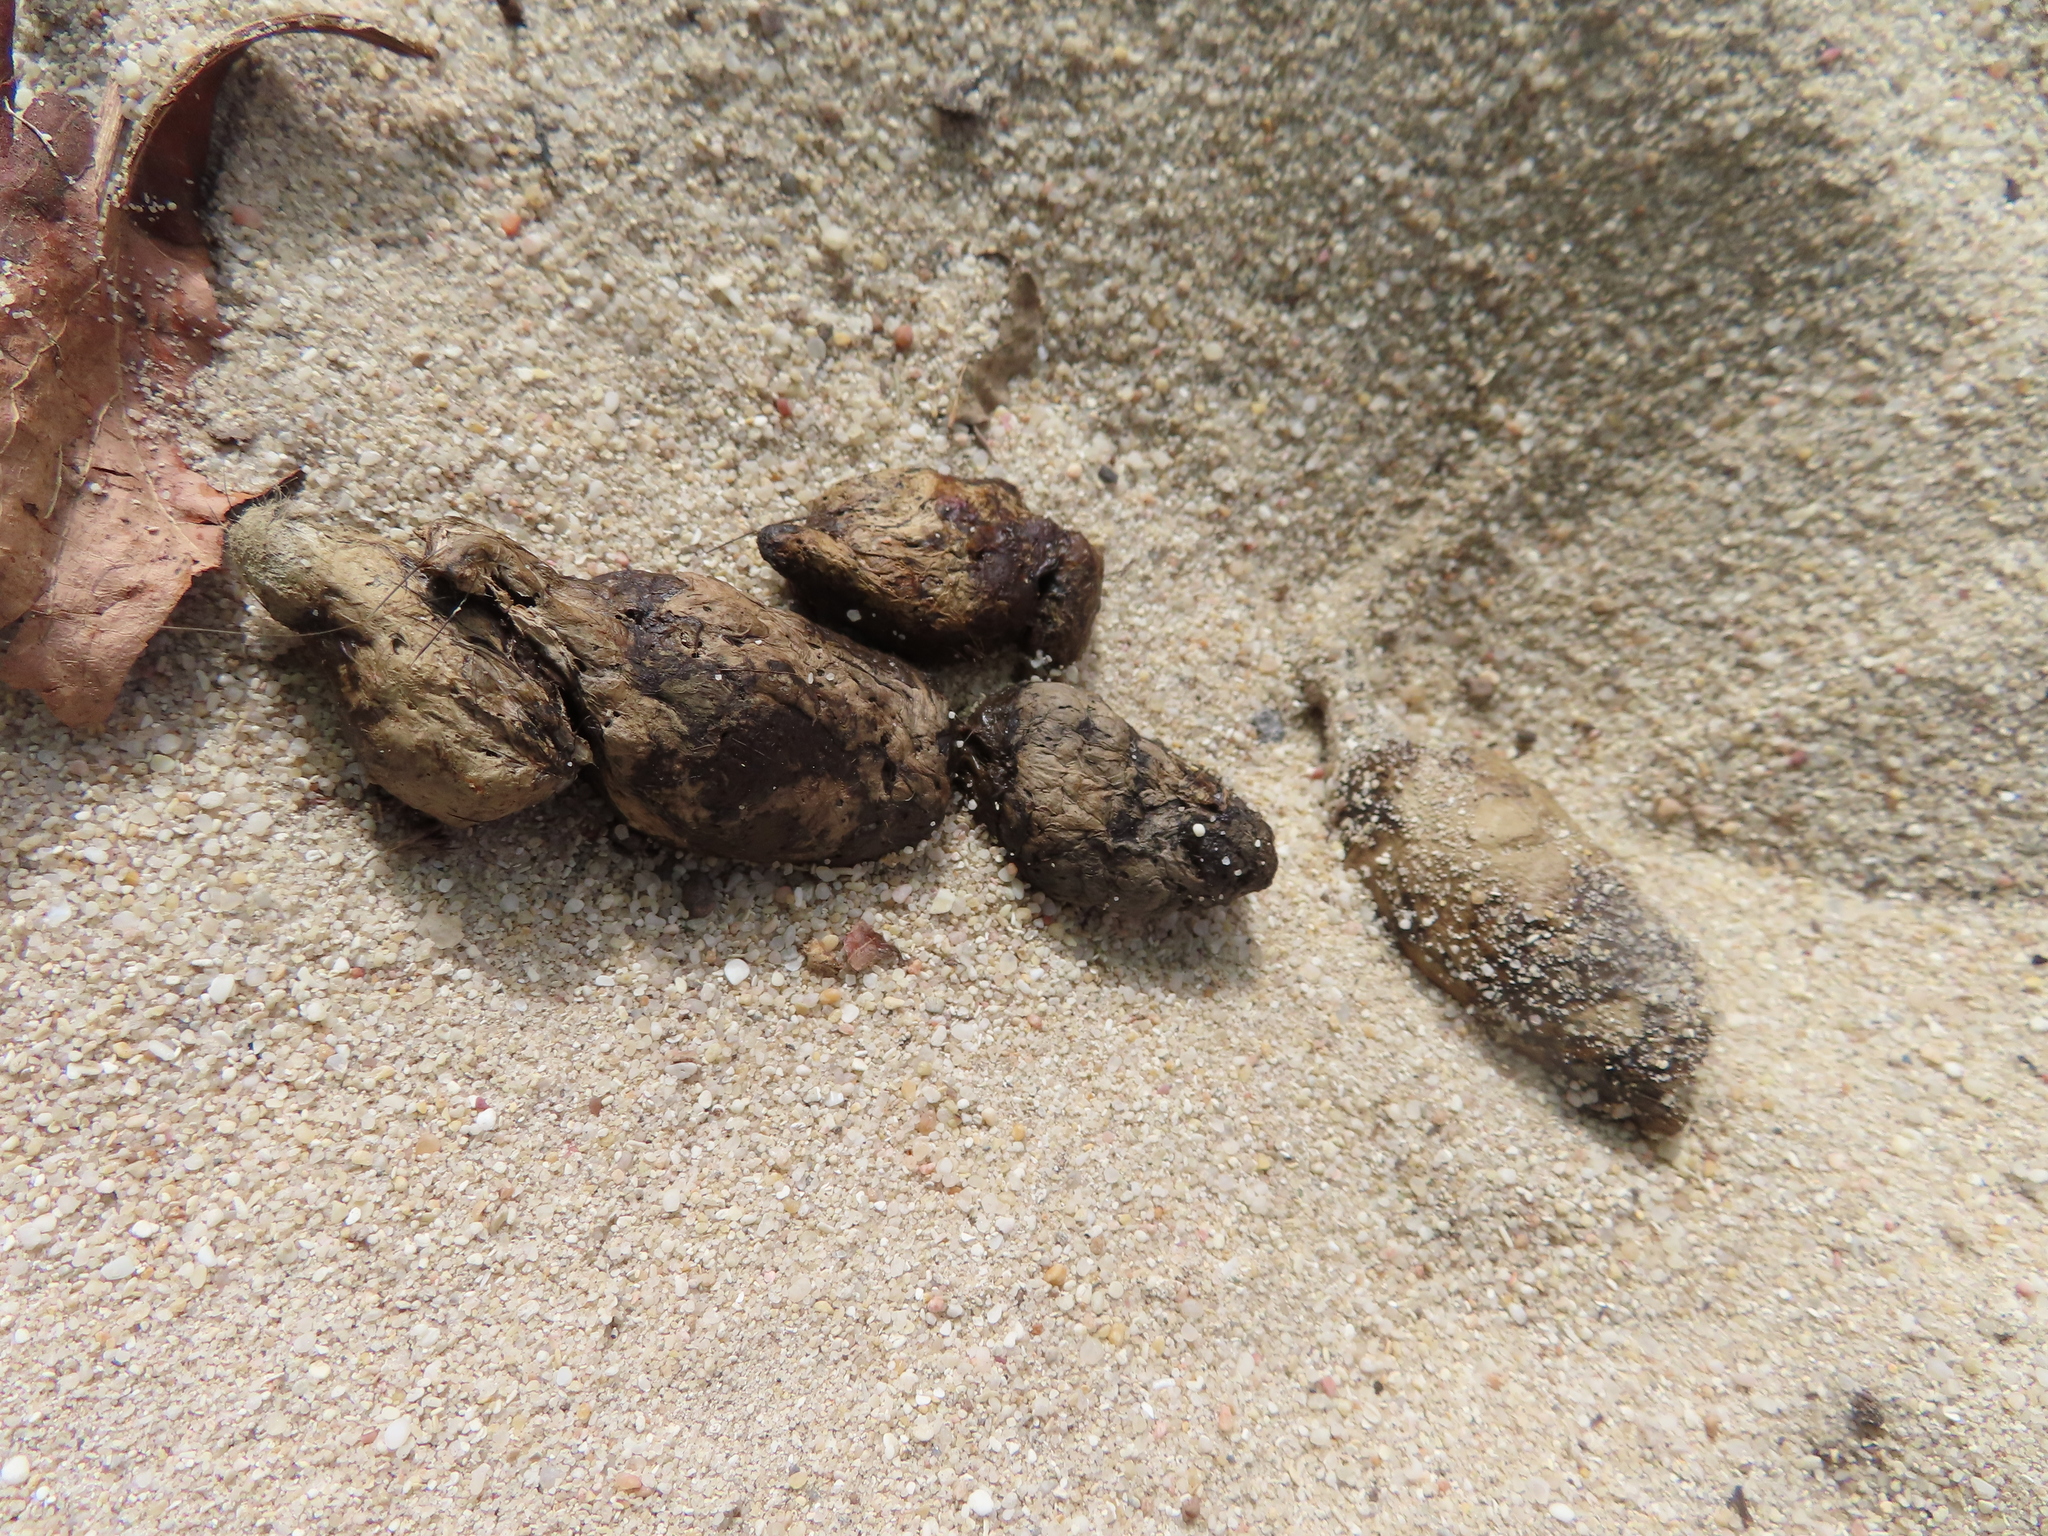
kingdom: Animalia
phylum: Chordata
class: Mammalia
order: Carnivora
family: Herpestidae
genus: Galerella
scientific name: Galerella pulverulenta
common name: Cape gray mongoose
